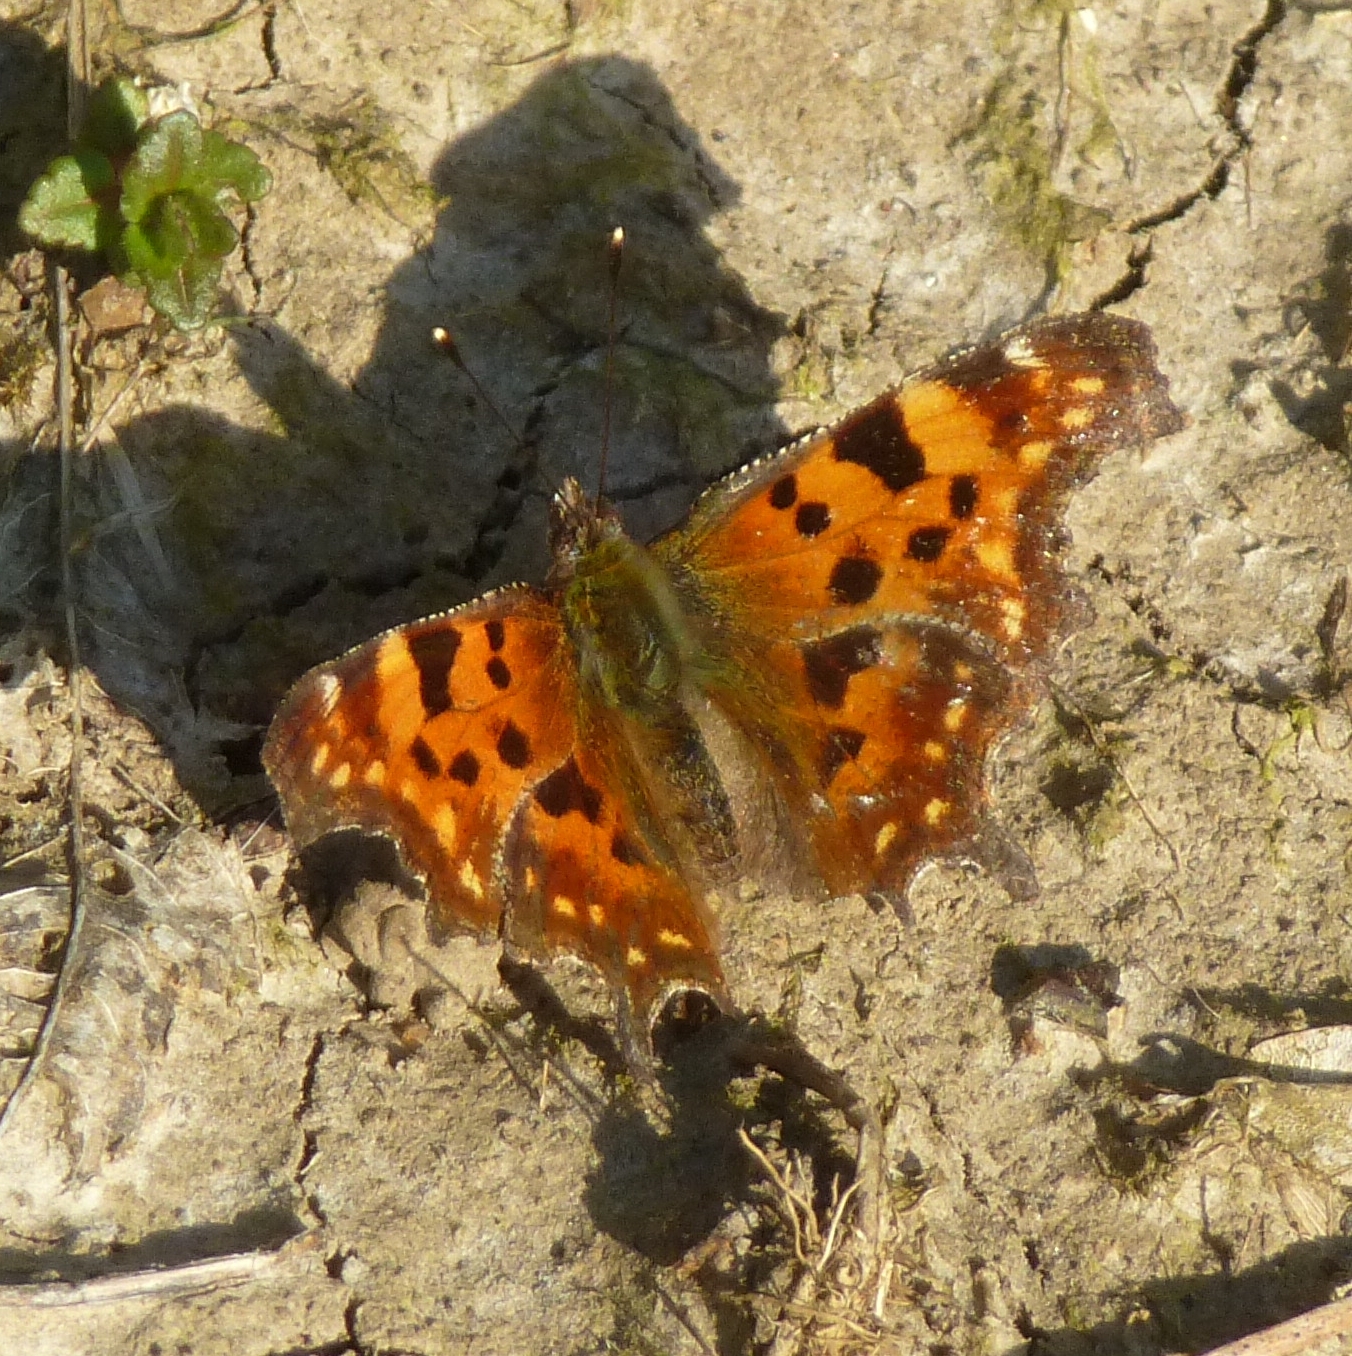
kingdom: Animalia
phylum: Arthropoda
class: Insecta
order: Lepidoptera
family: Nymphalidae
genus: Polygonia
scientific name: Polygonia c-album
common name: Comma
